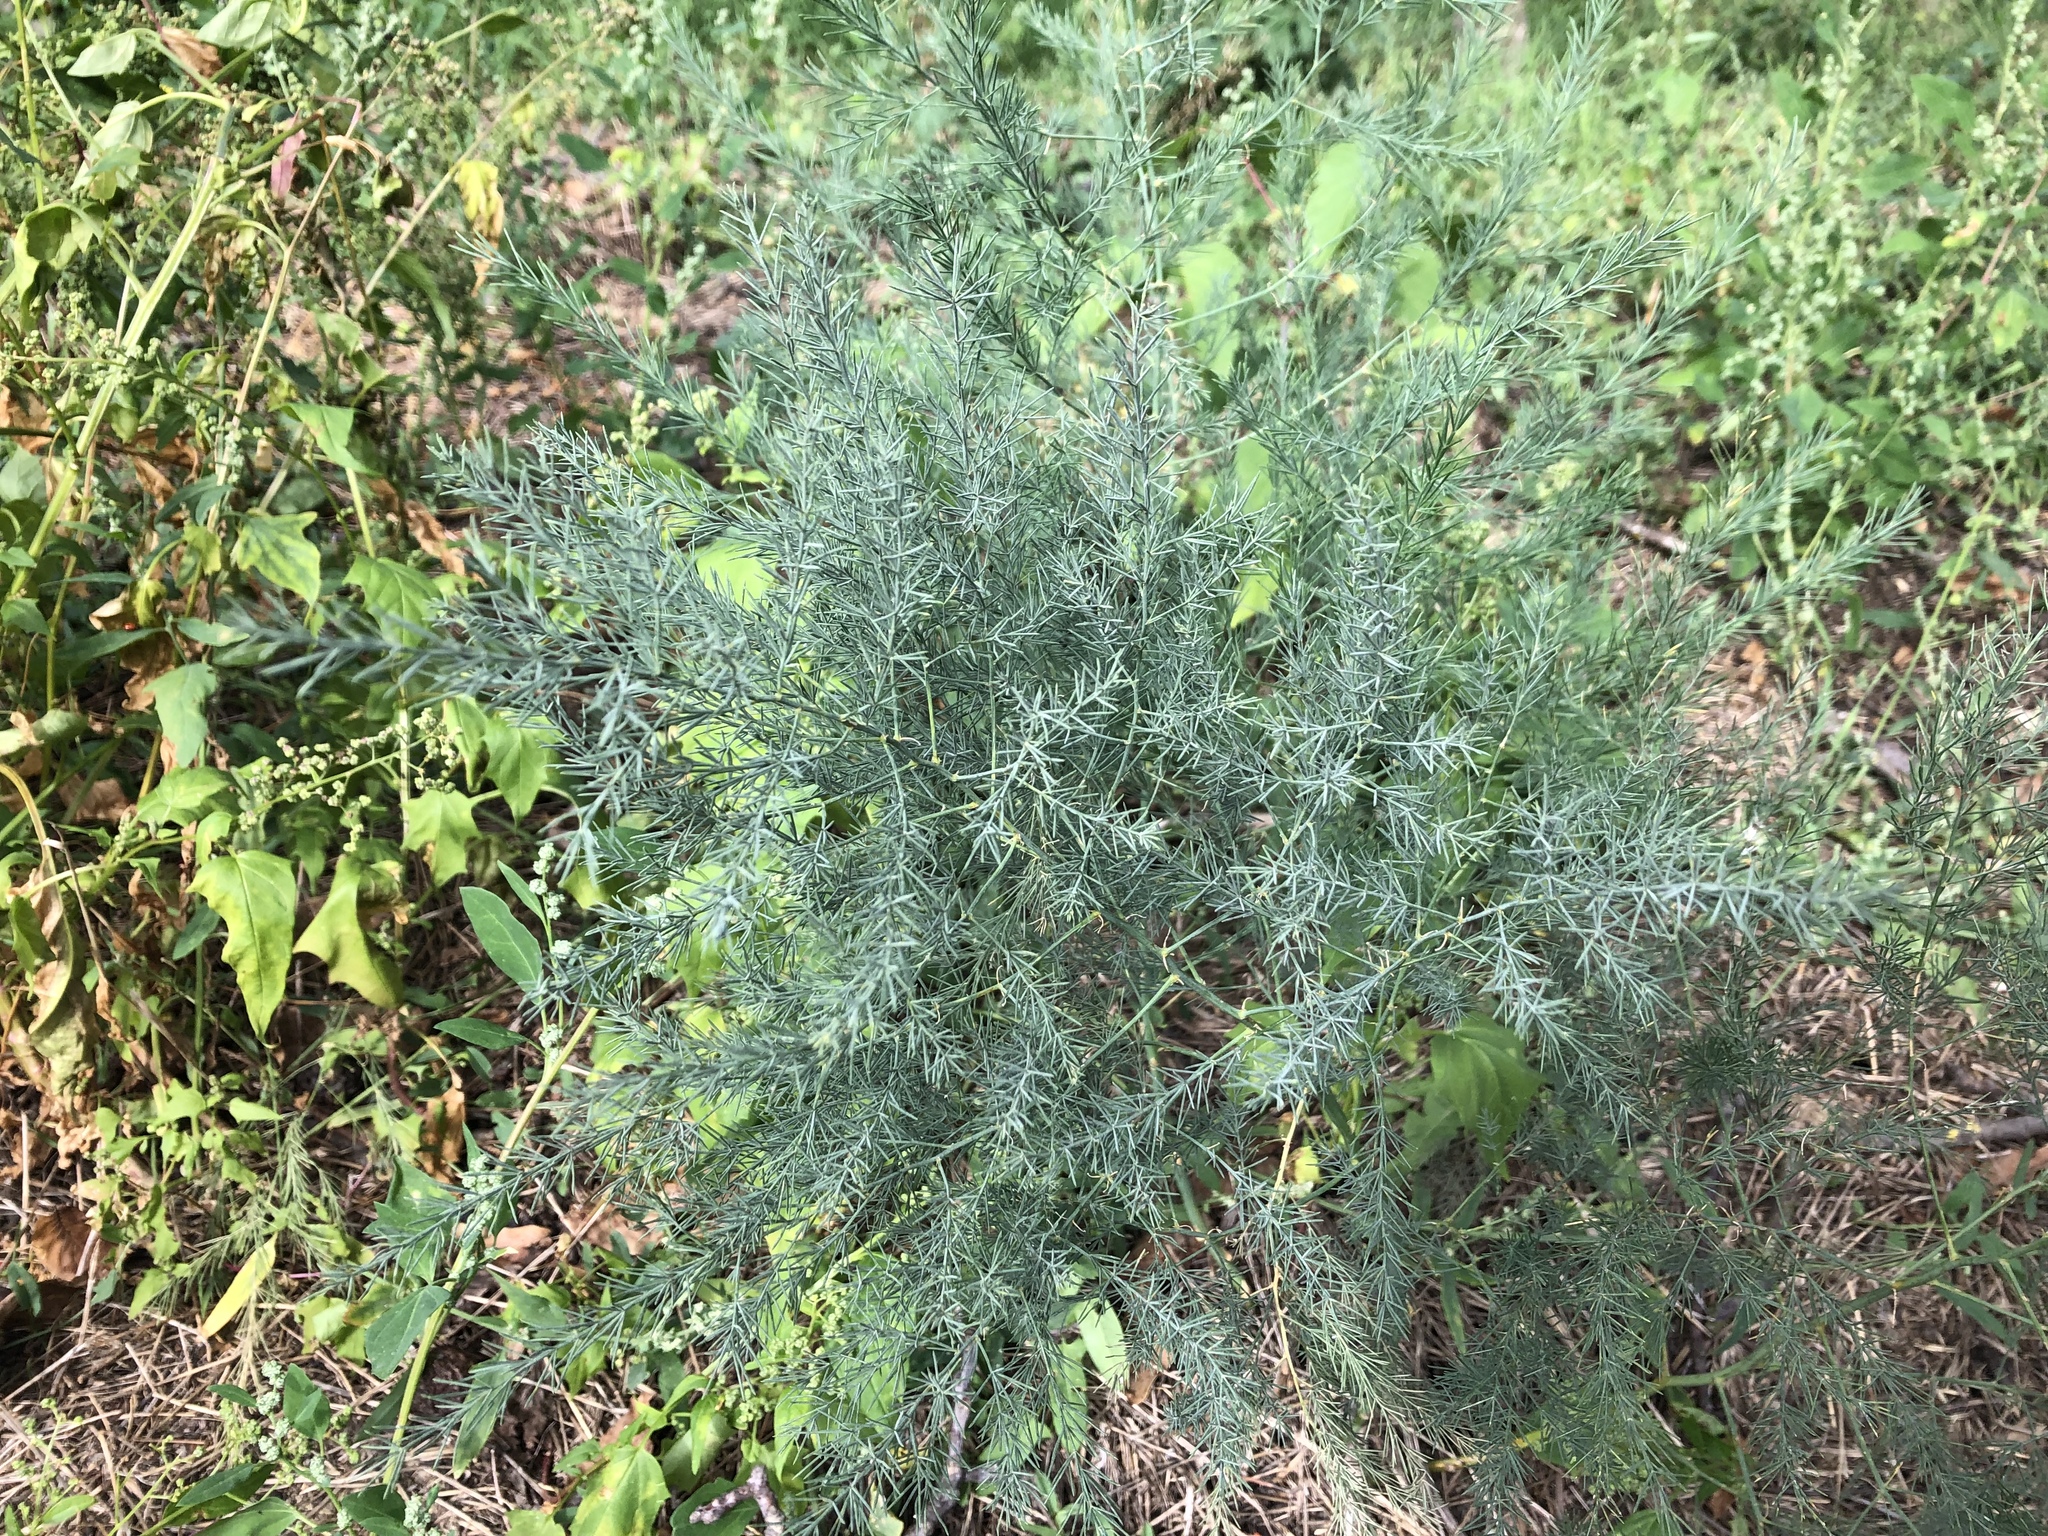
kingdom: Plantae
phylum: Tracheophyta
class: Liliopsida
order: Asparagales
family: Asparagaceae
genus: Asparagus
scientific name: Asparagus officinalis
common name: Garden asparagus
